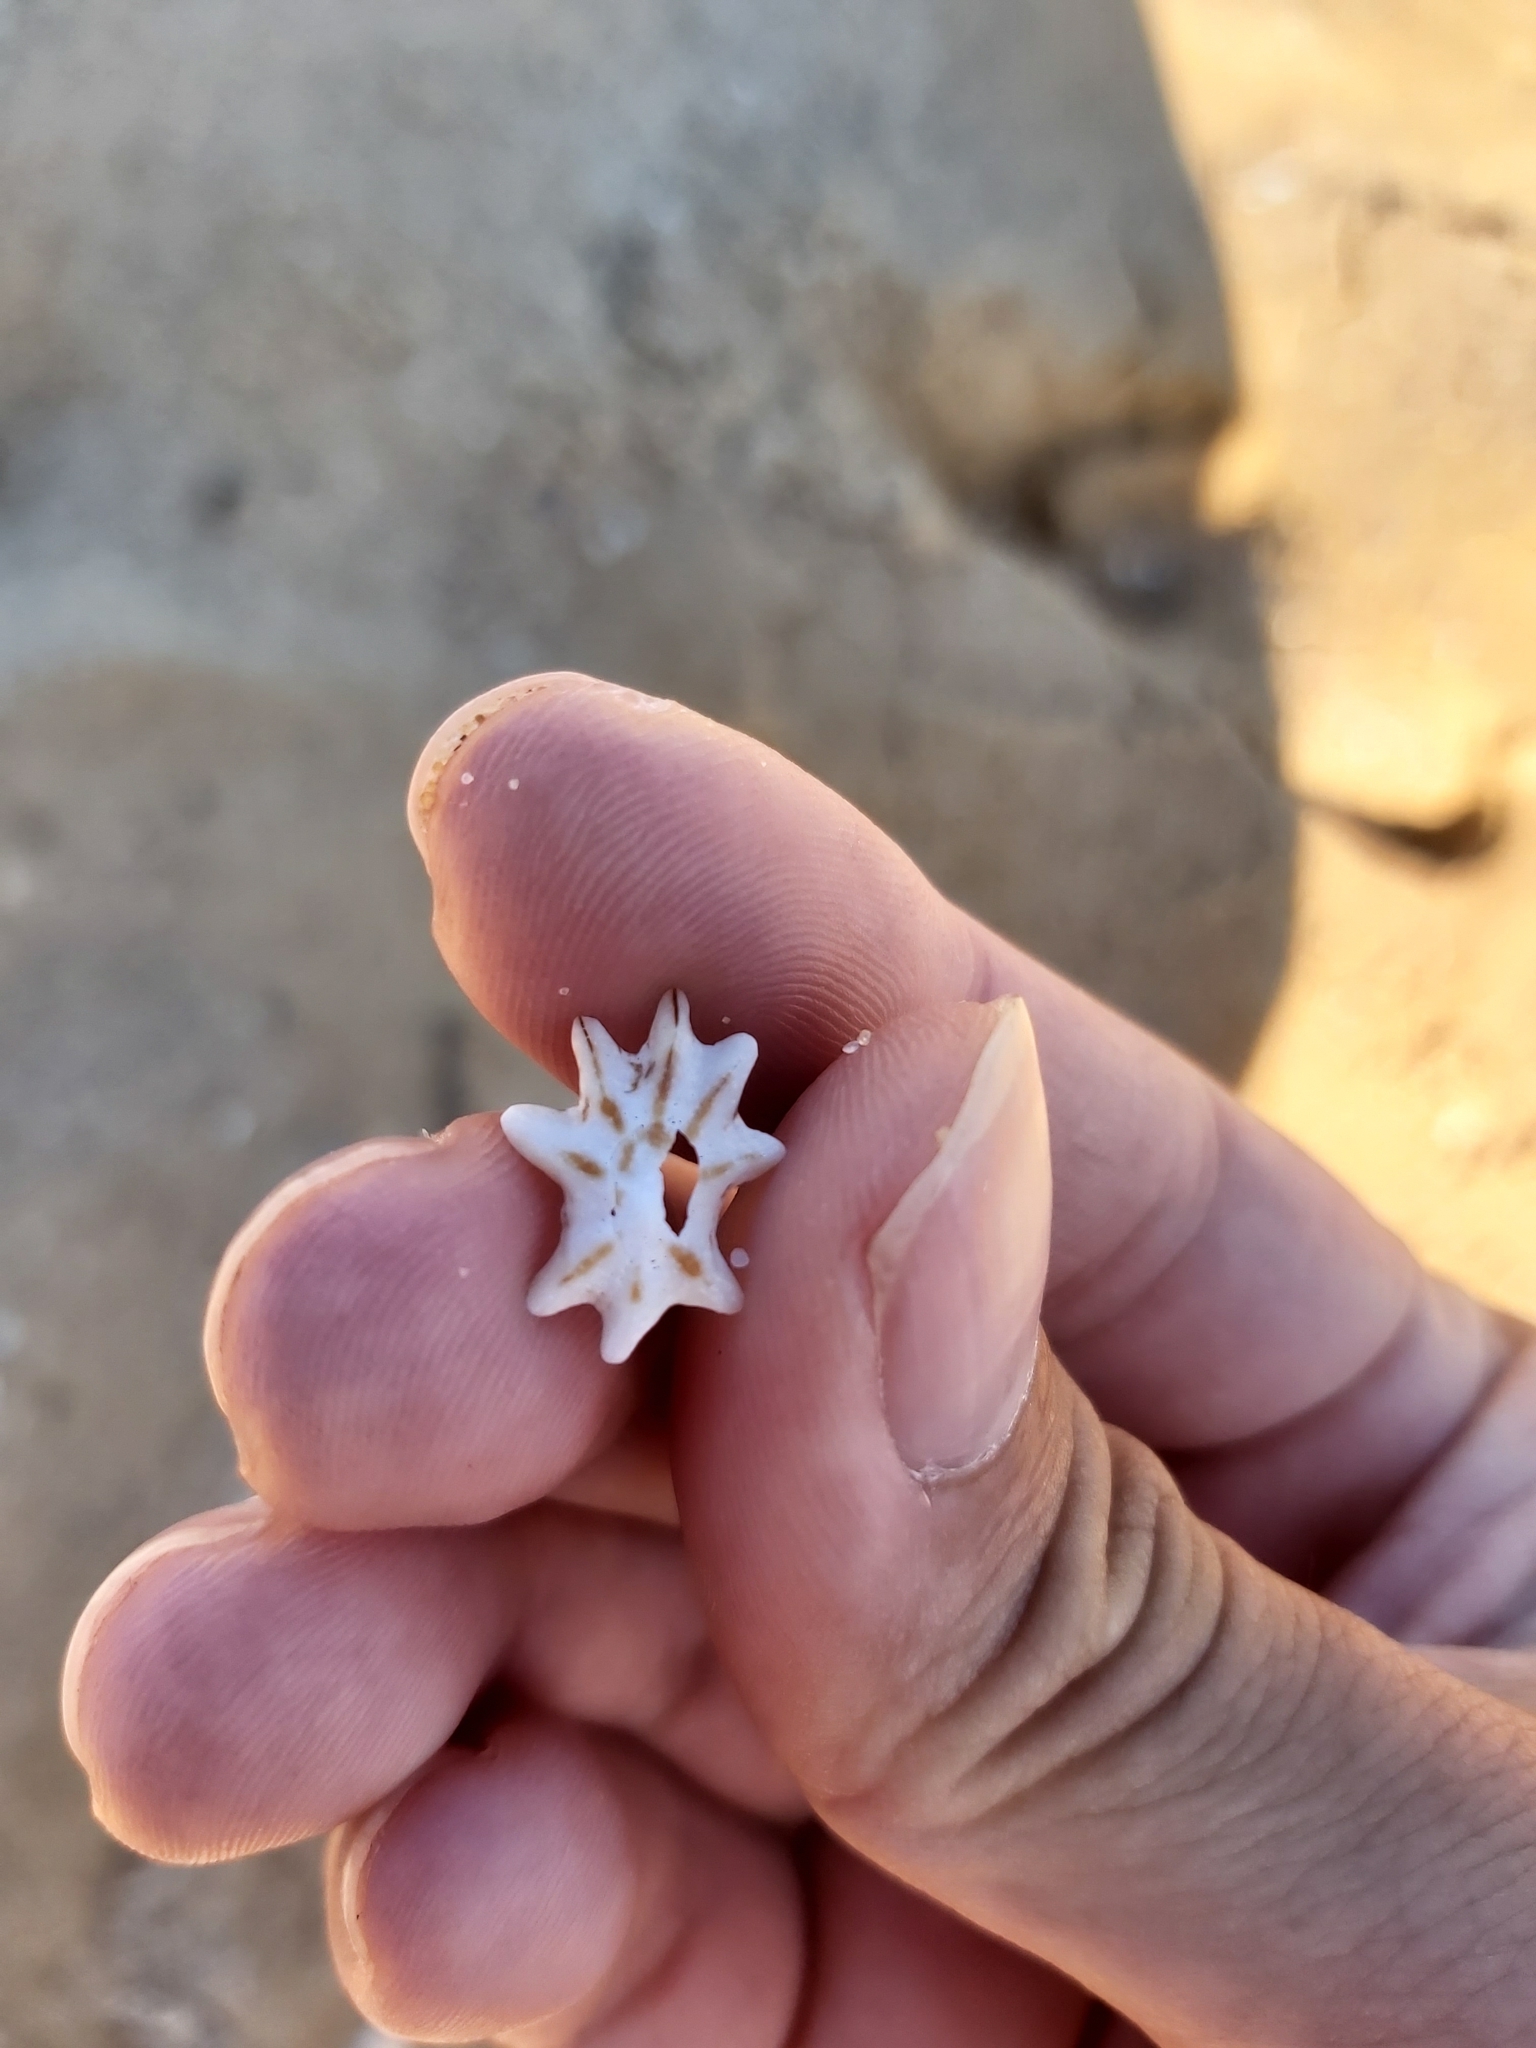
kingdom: Animalia
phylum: Mollusca
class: Gastropoda
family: Patellidae
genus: Scutellastra
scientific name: Scutellastra chapmani
